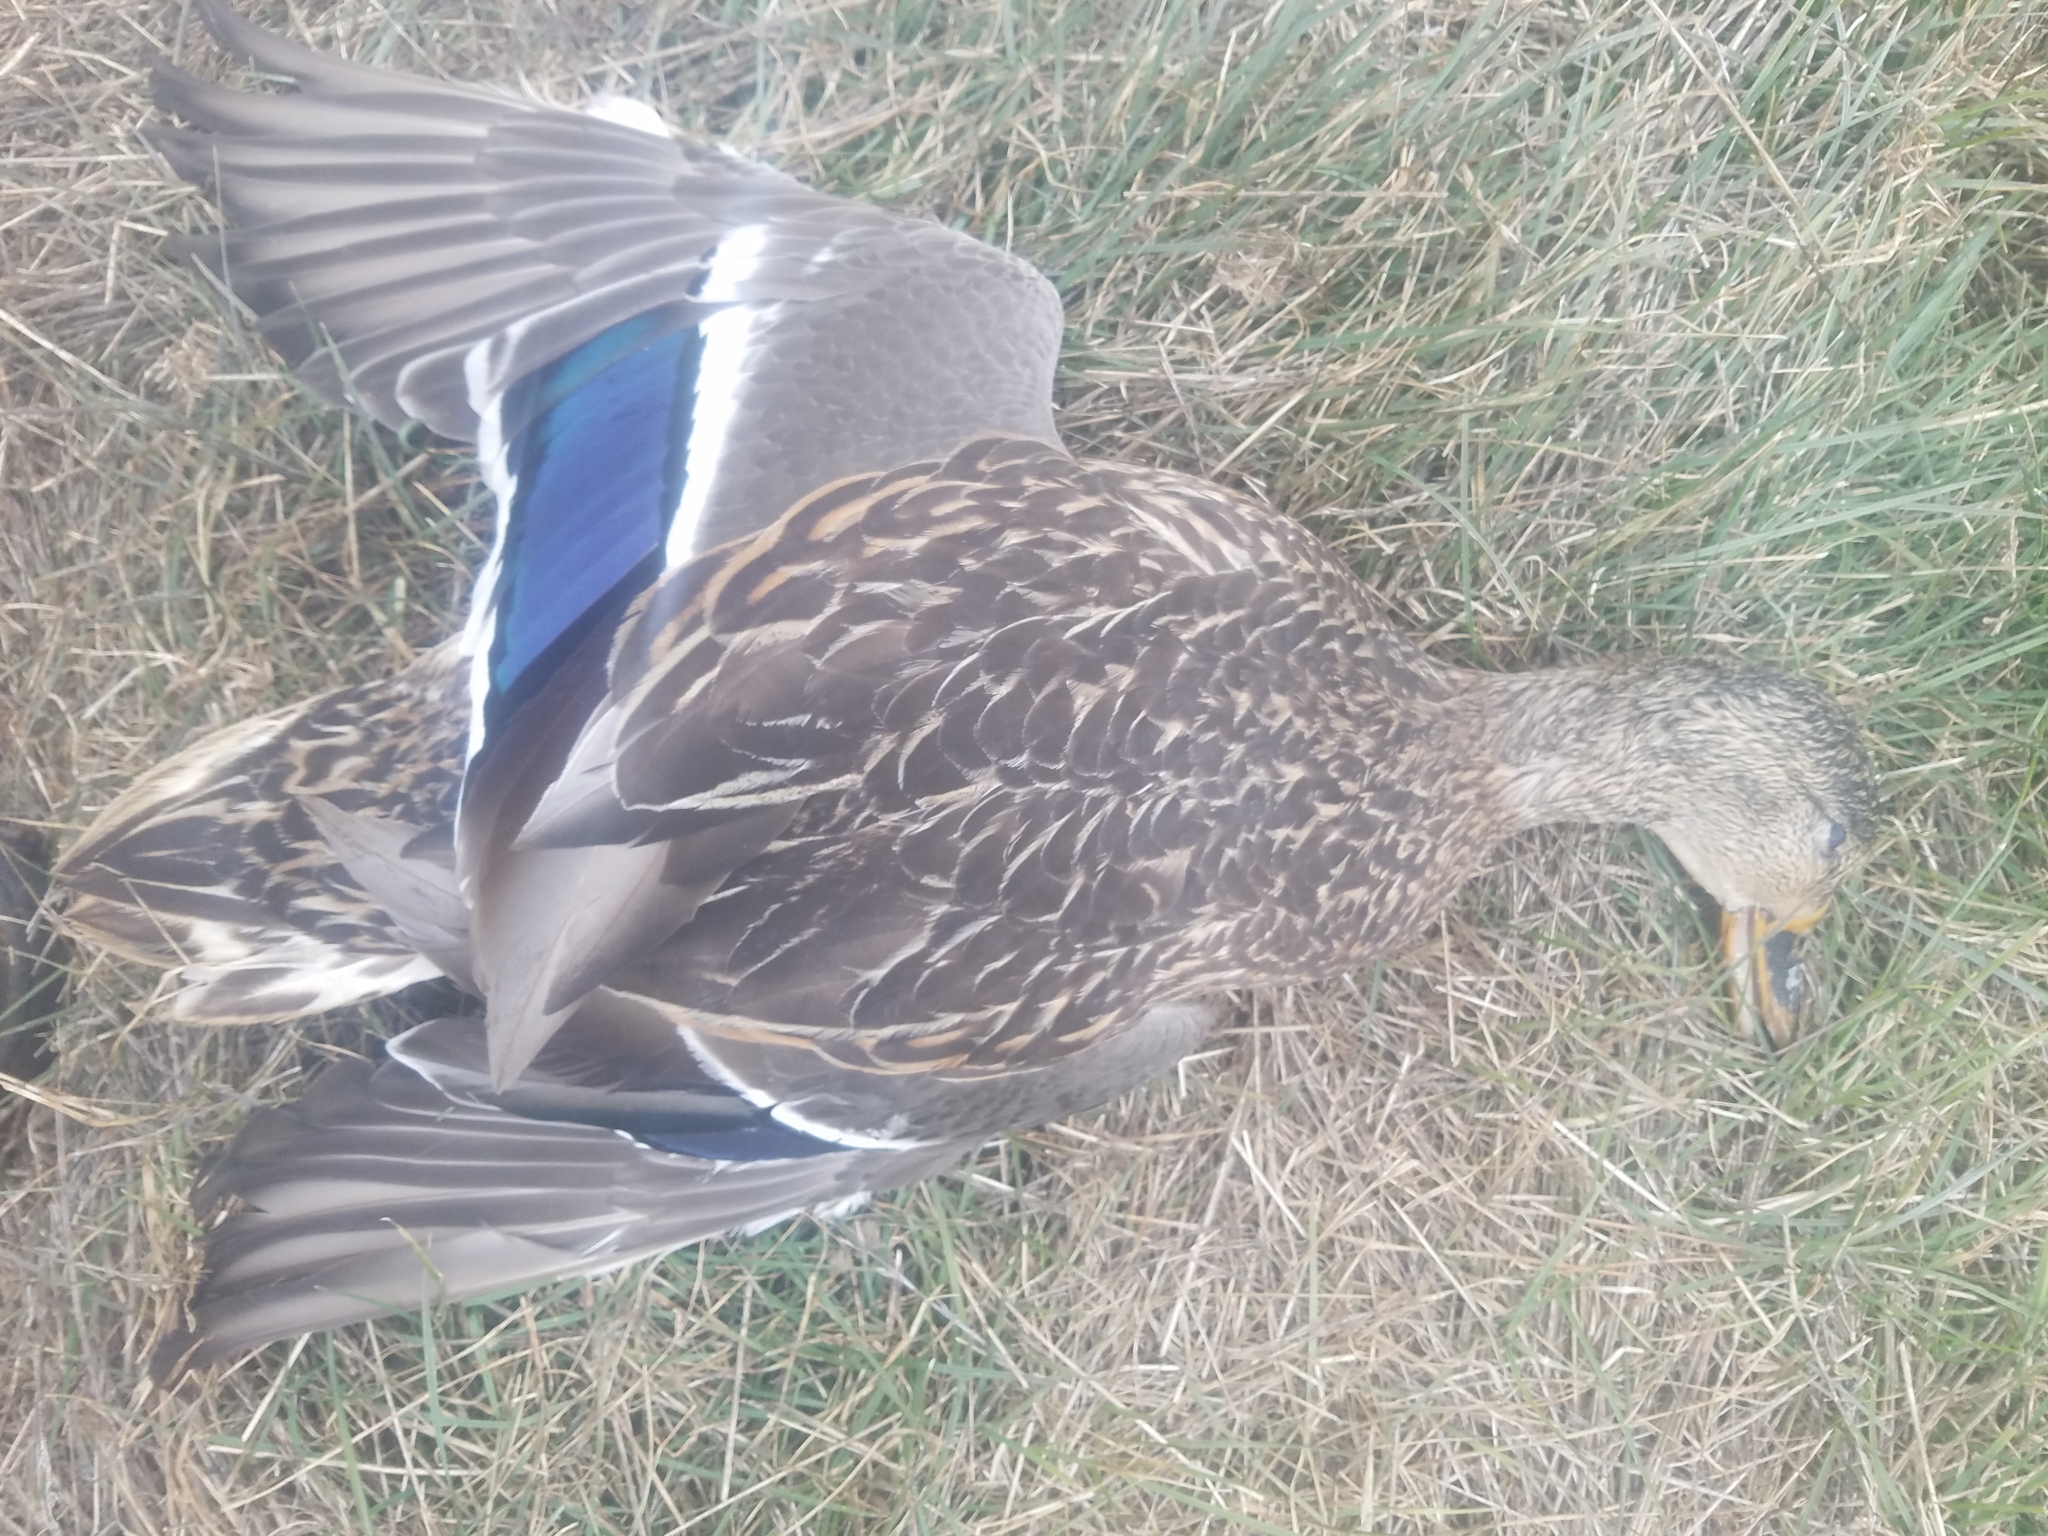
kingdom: Animalia
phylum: Chordata
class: Aves
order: Anseriformes
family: Anatidae
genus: Anas
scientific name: Anas platyrhynchos
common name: Mallard
